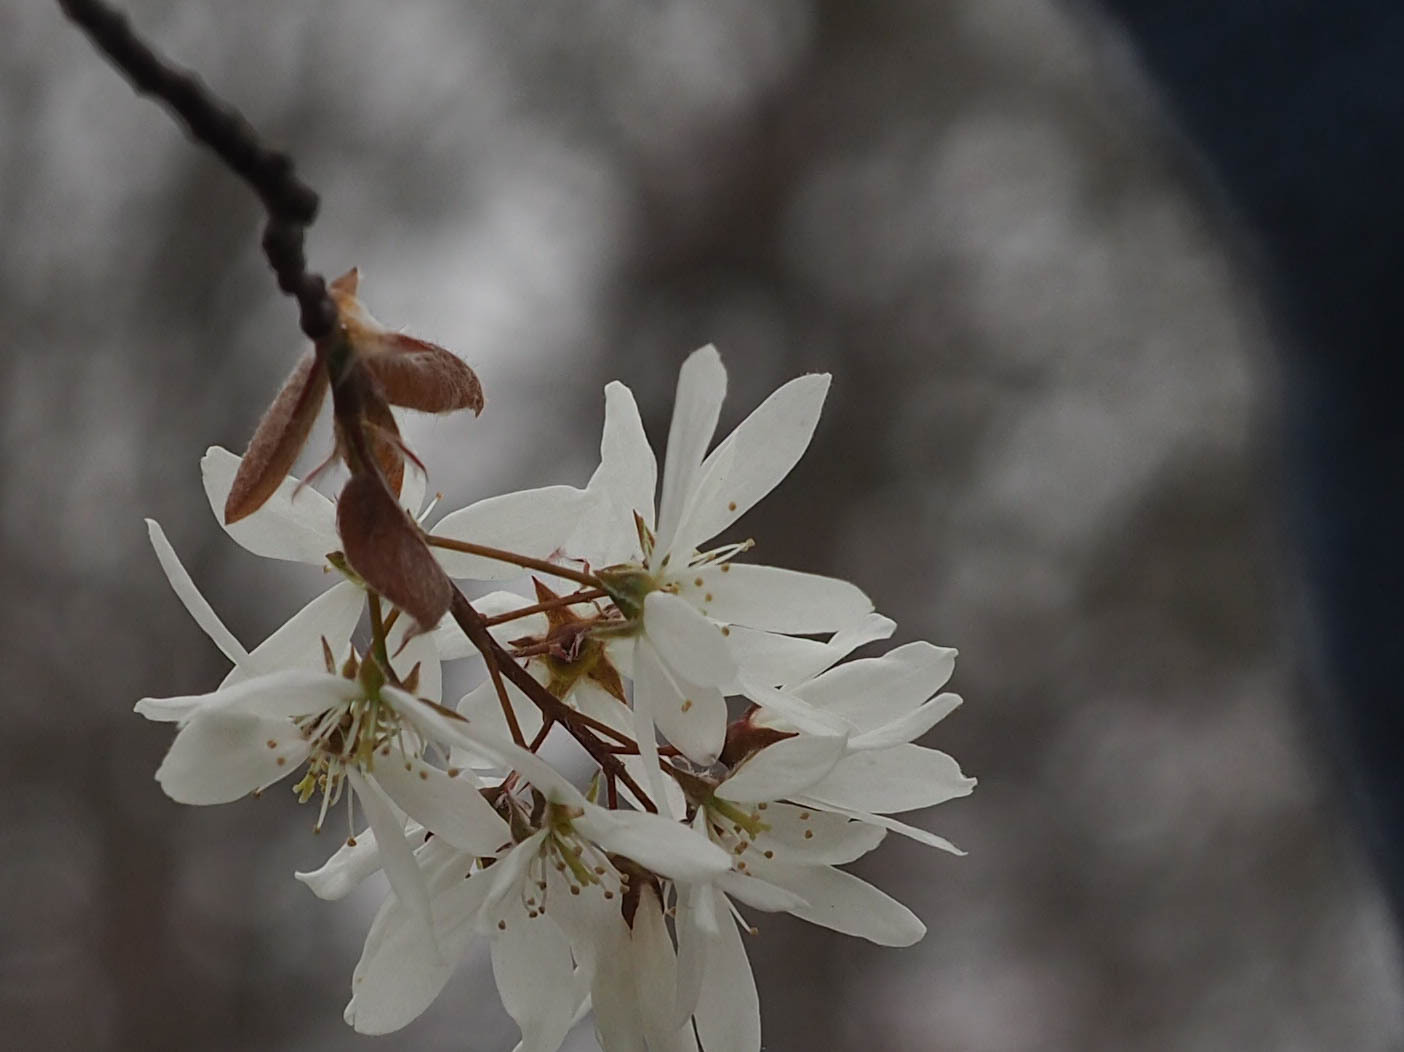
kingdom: Plantae
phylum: Tracheophyta
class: Magnoliopsida
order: Rosales
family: Rosaceae
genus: Amelanchier
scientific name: Amelanchier arborea
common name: Downy serviceberry
